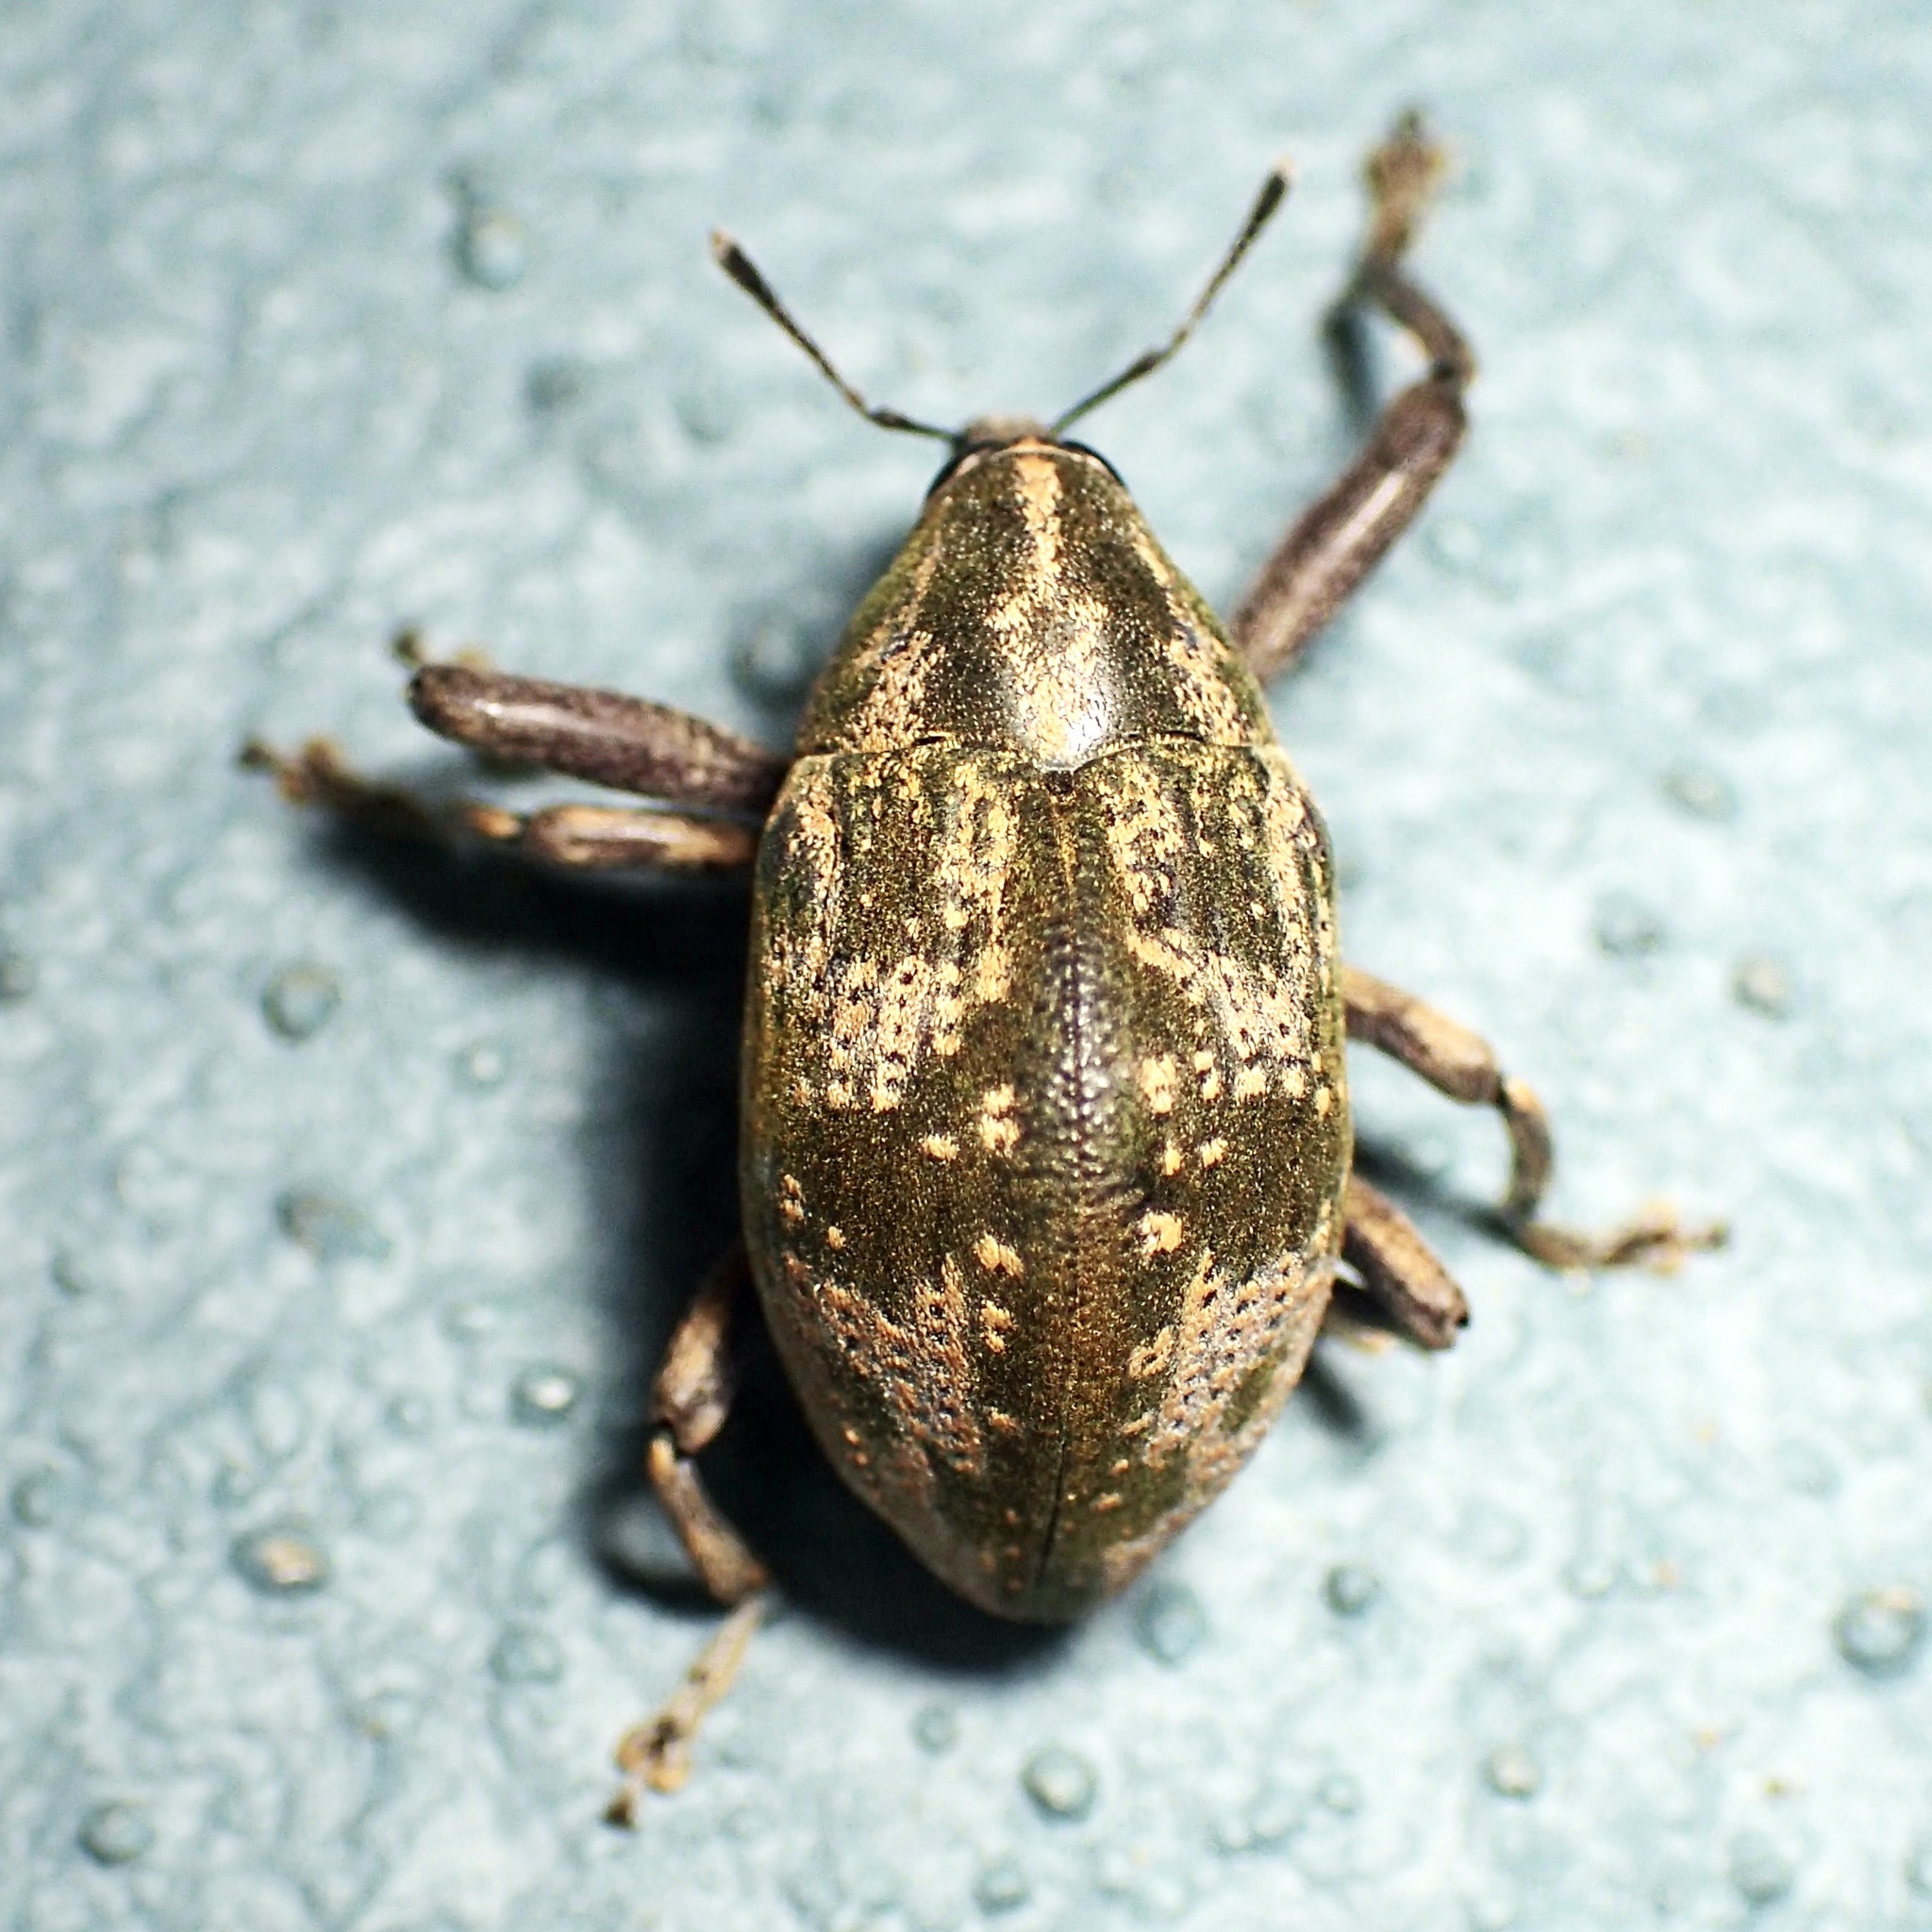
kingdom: Animalia
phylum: Arthropoda
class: Insecta
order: Coleoptera
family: Curculionidae
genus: Perissops
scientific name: Perissops mucidus
